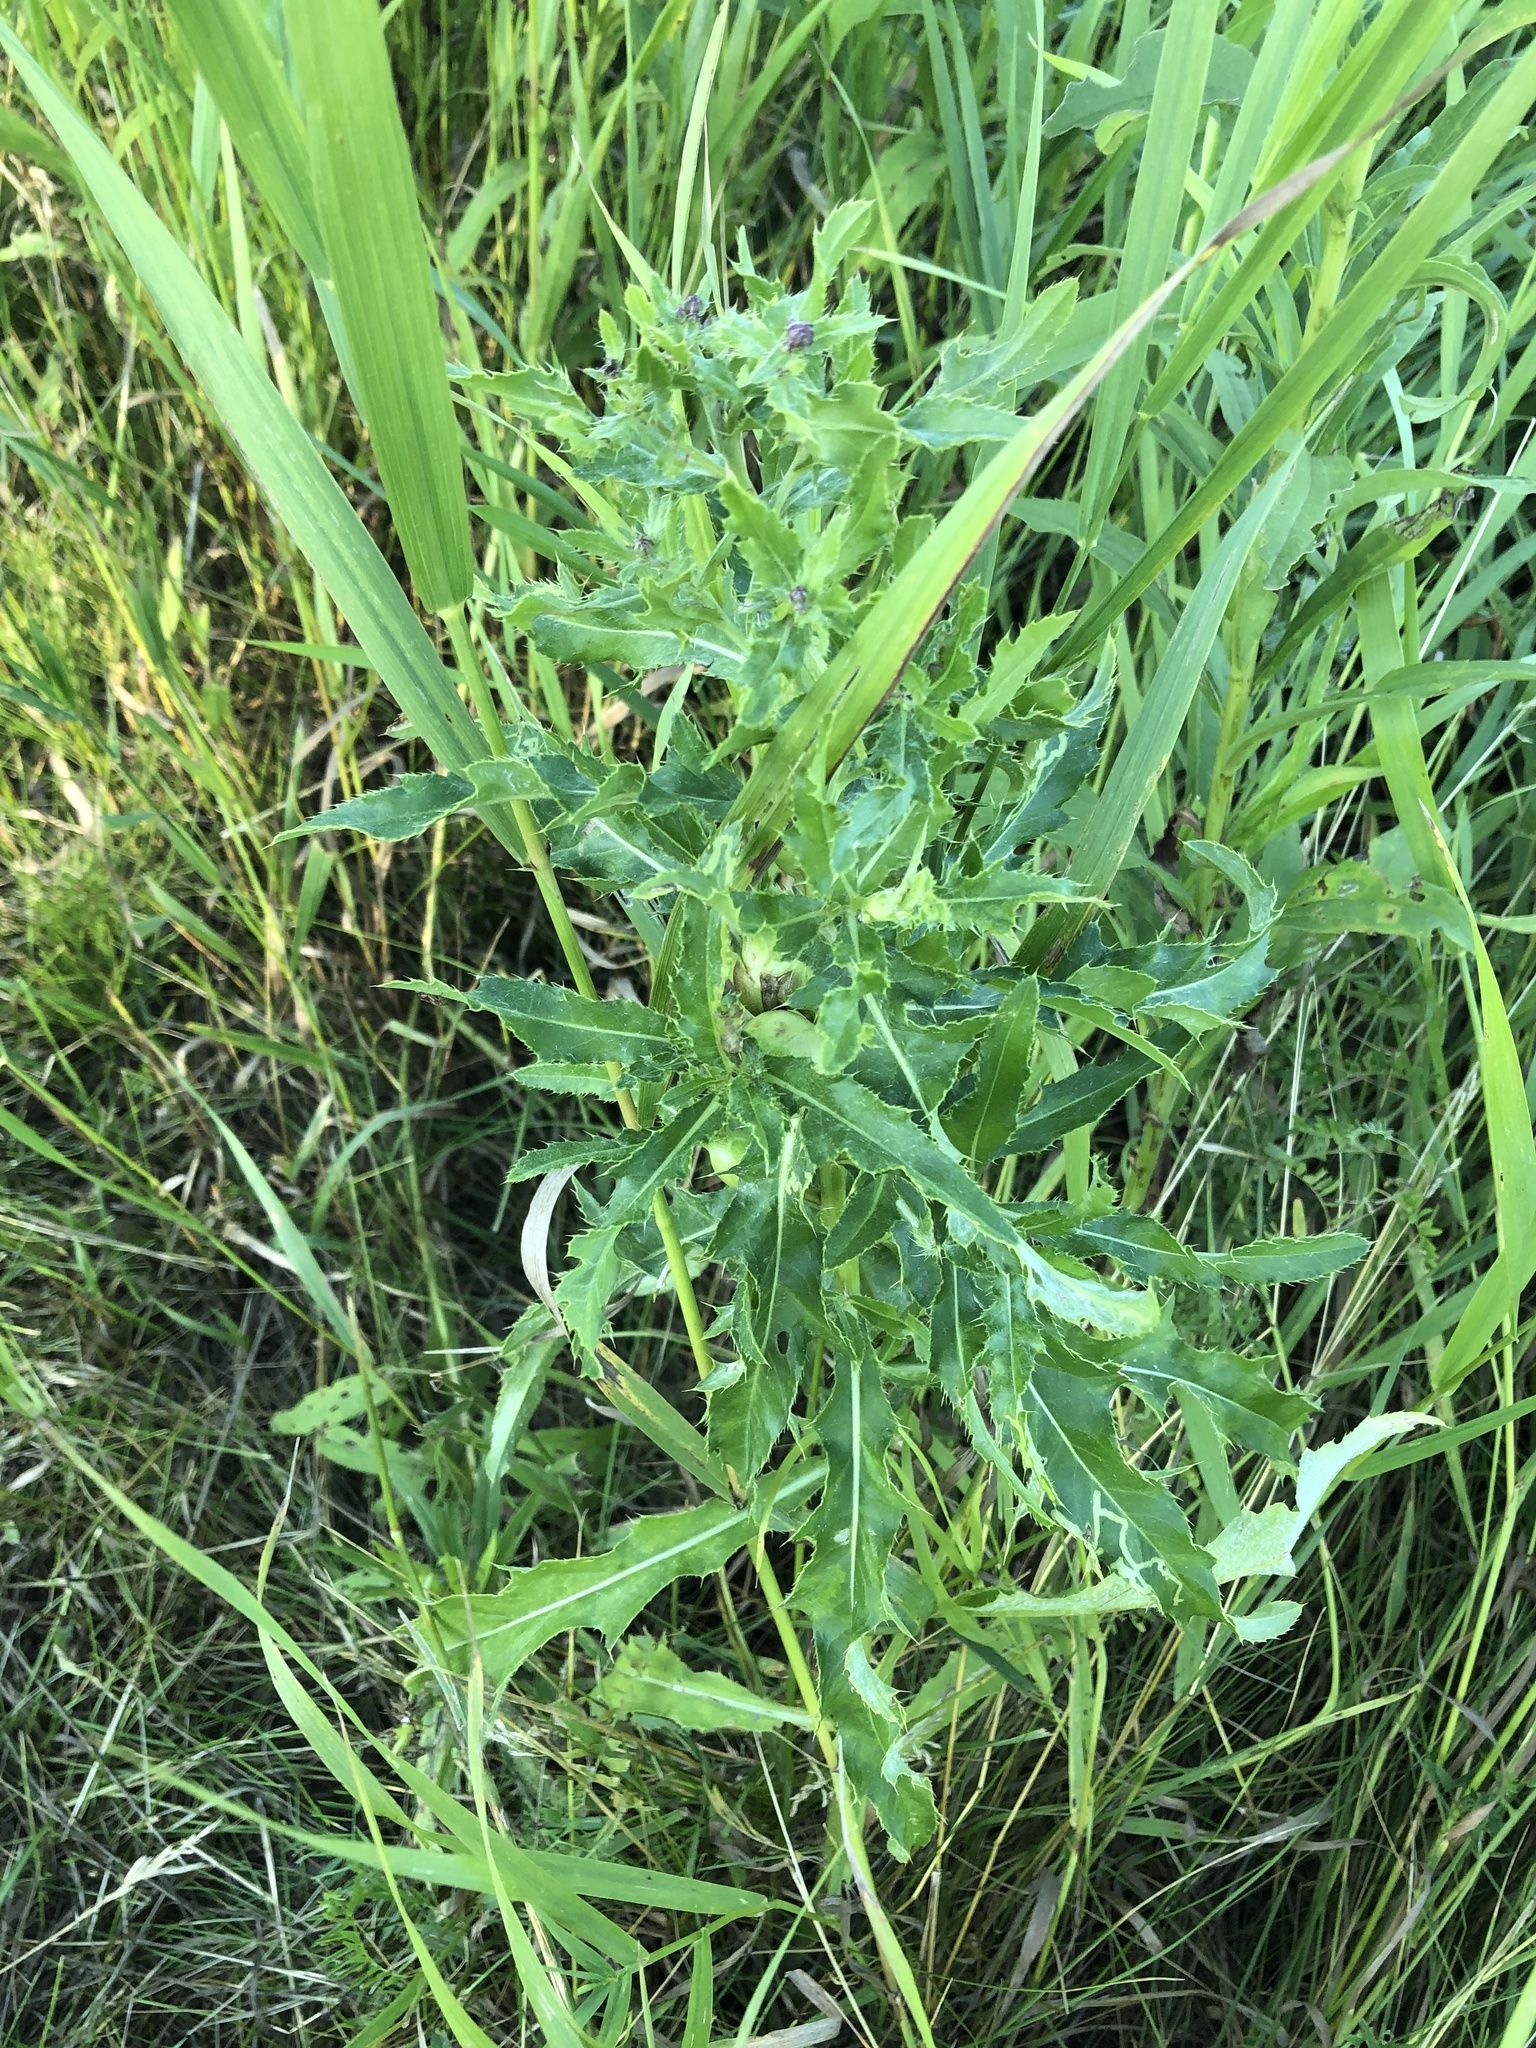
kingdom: Plantae
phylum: Tracheophyta
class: Magnoliopsida
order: Asterales
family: Asteraceae
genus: Cirsium
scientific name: Cirsium arvense
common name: Creeping thistle
